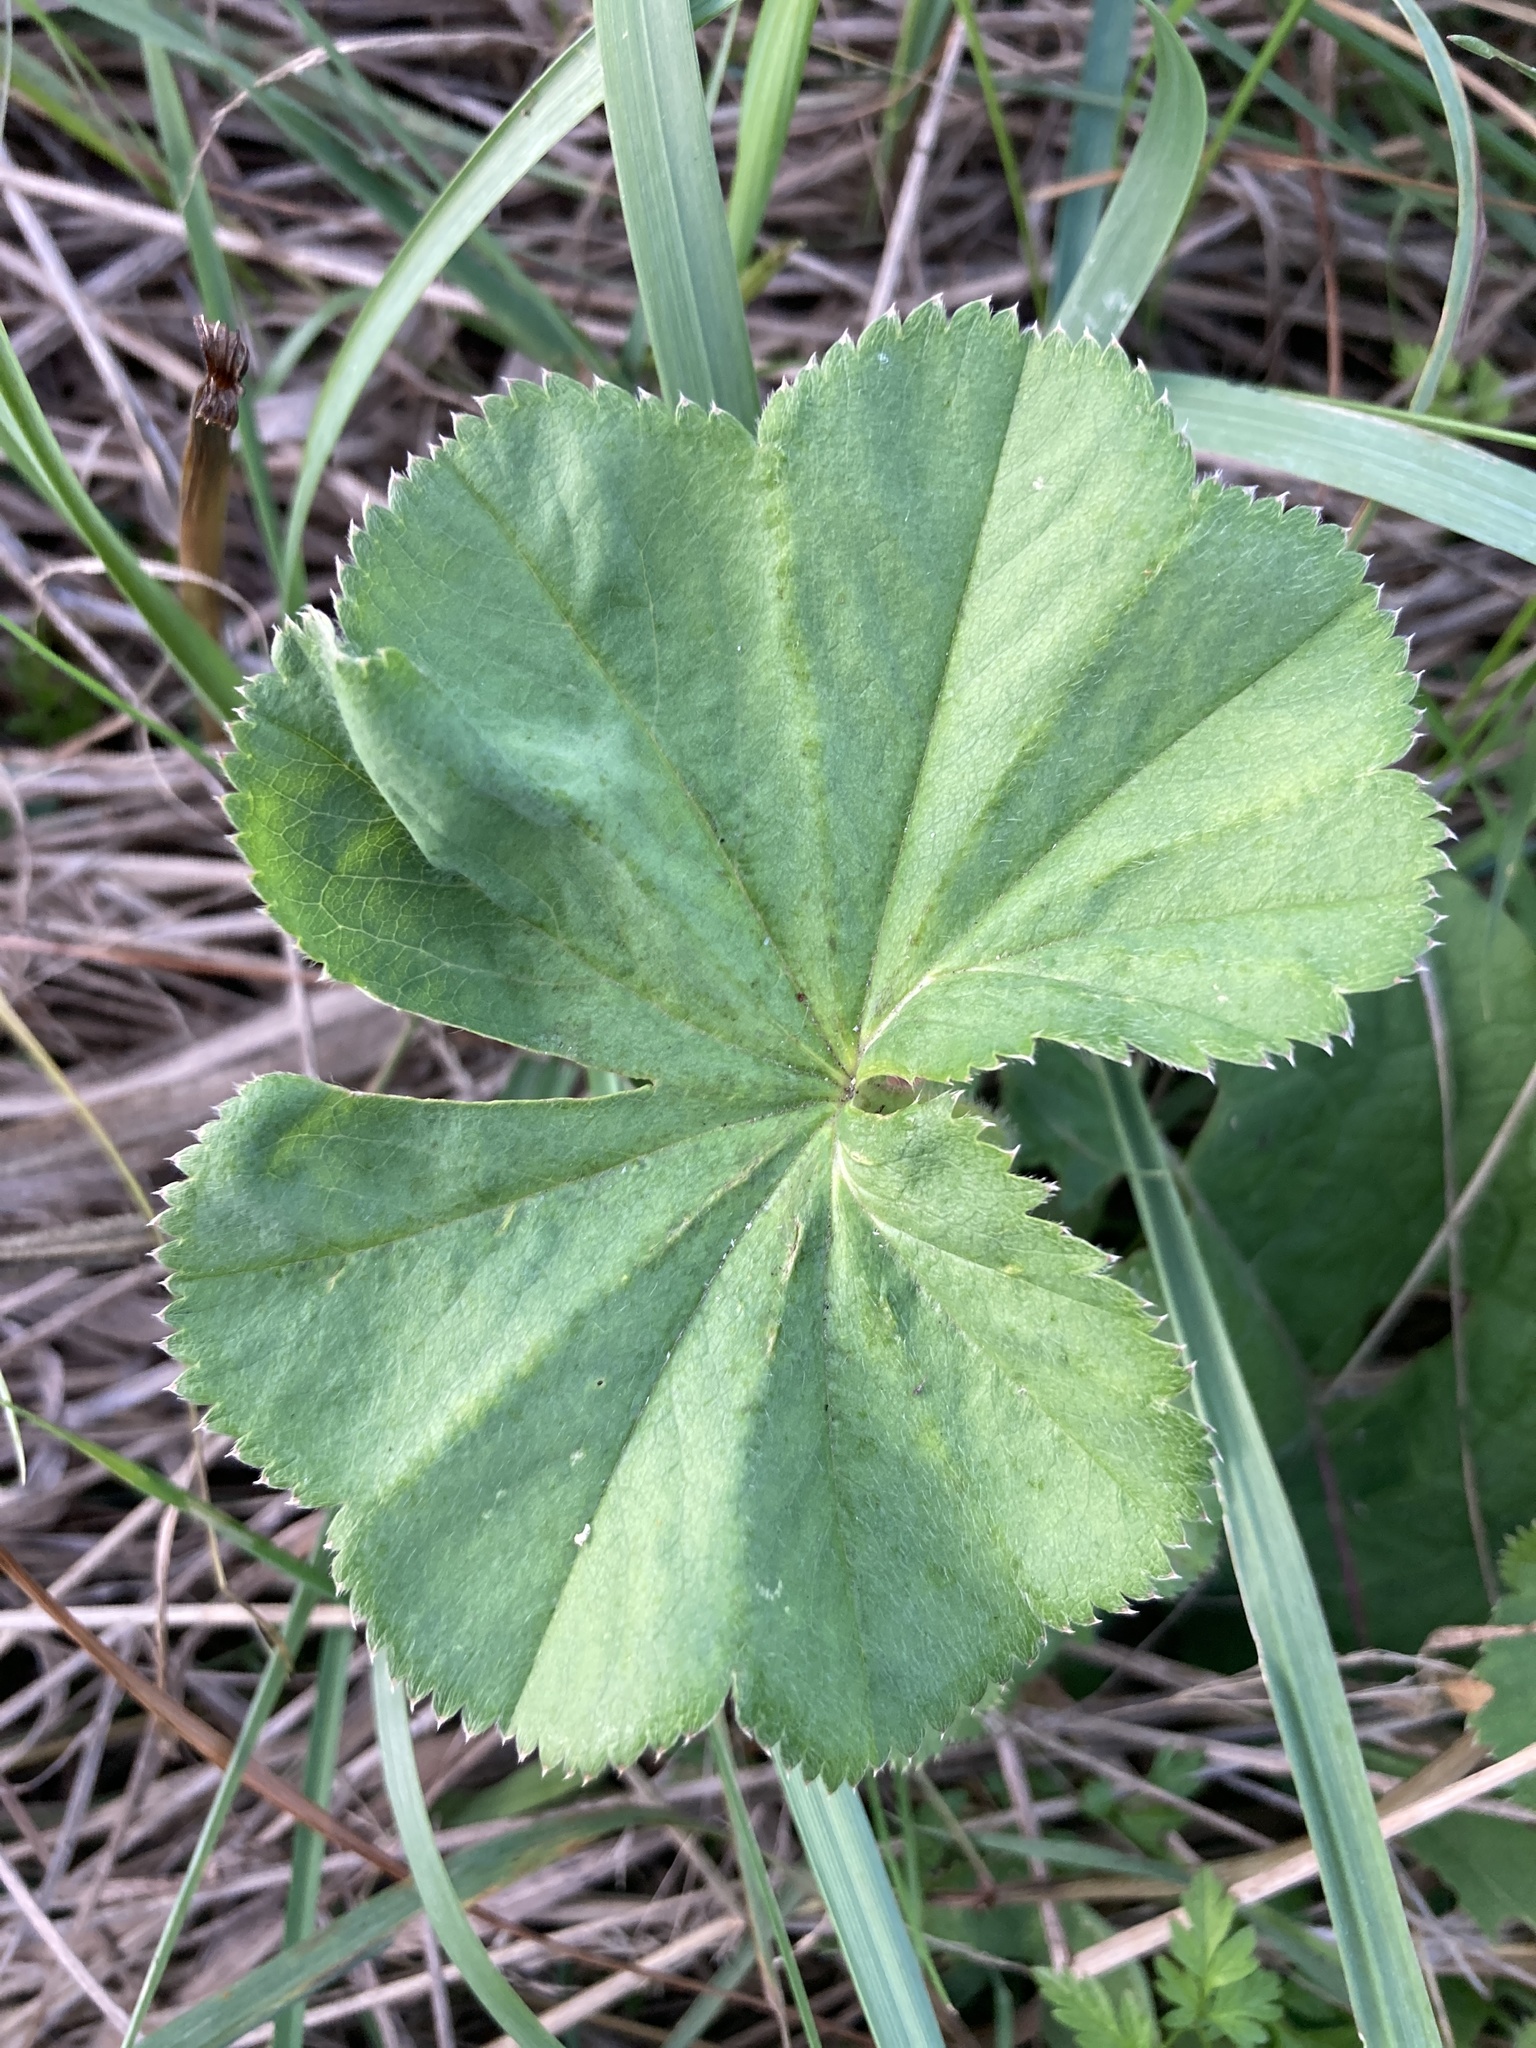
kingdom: Plantae
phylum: Tracheophyta
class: Magnoliopsida
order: Rosales
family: Rosaceae
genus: Alchemilla
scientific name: Alchemilla
